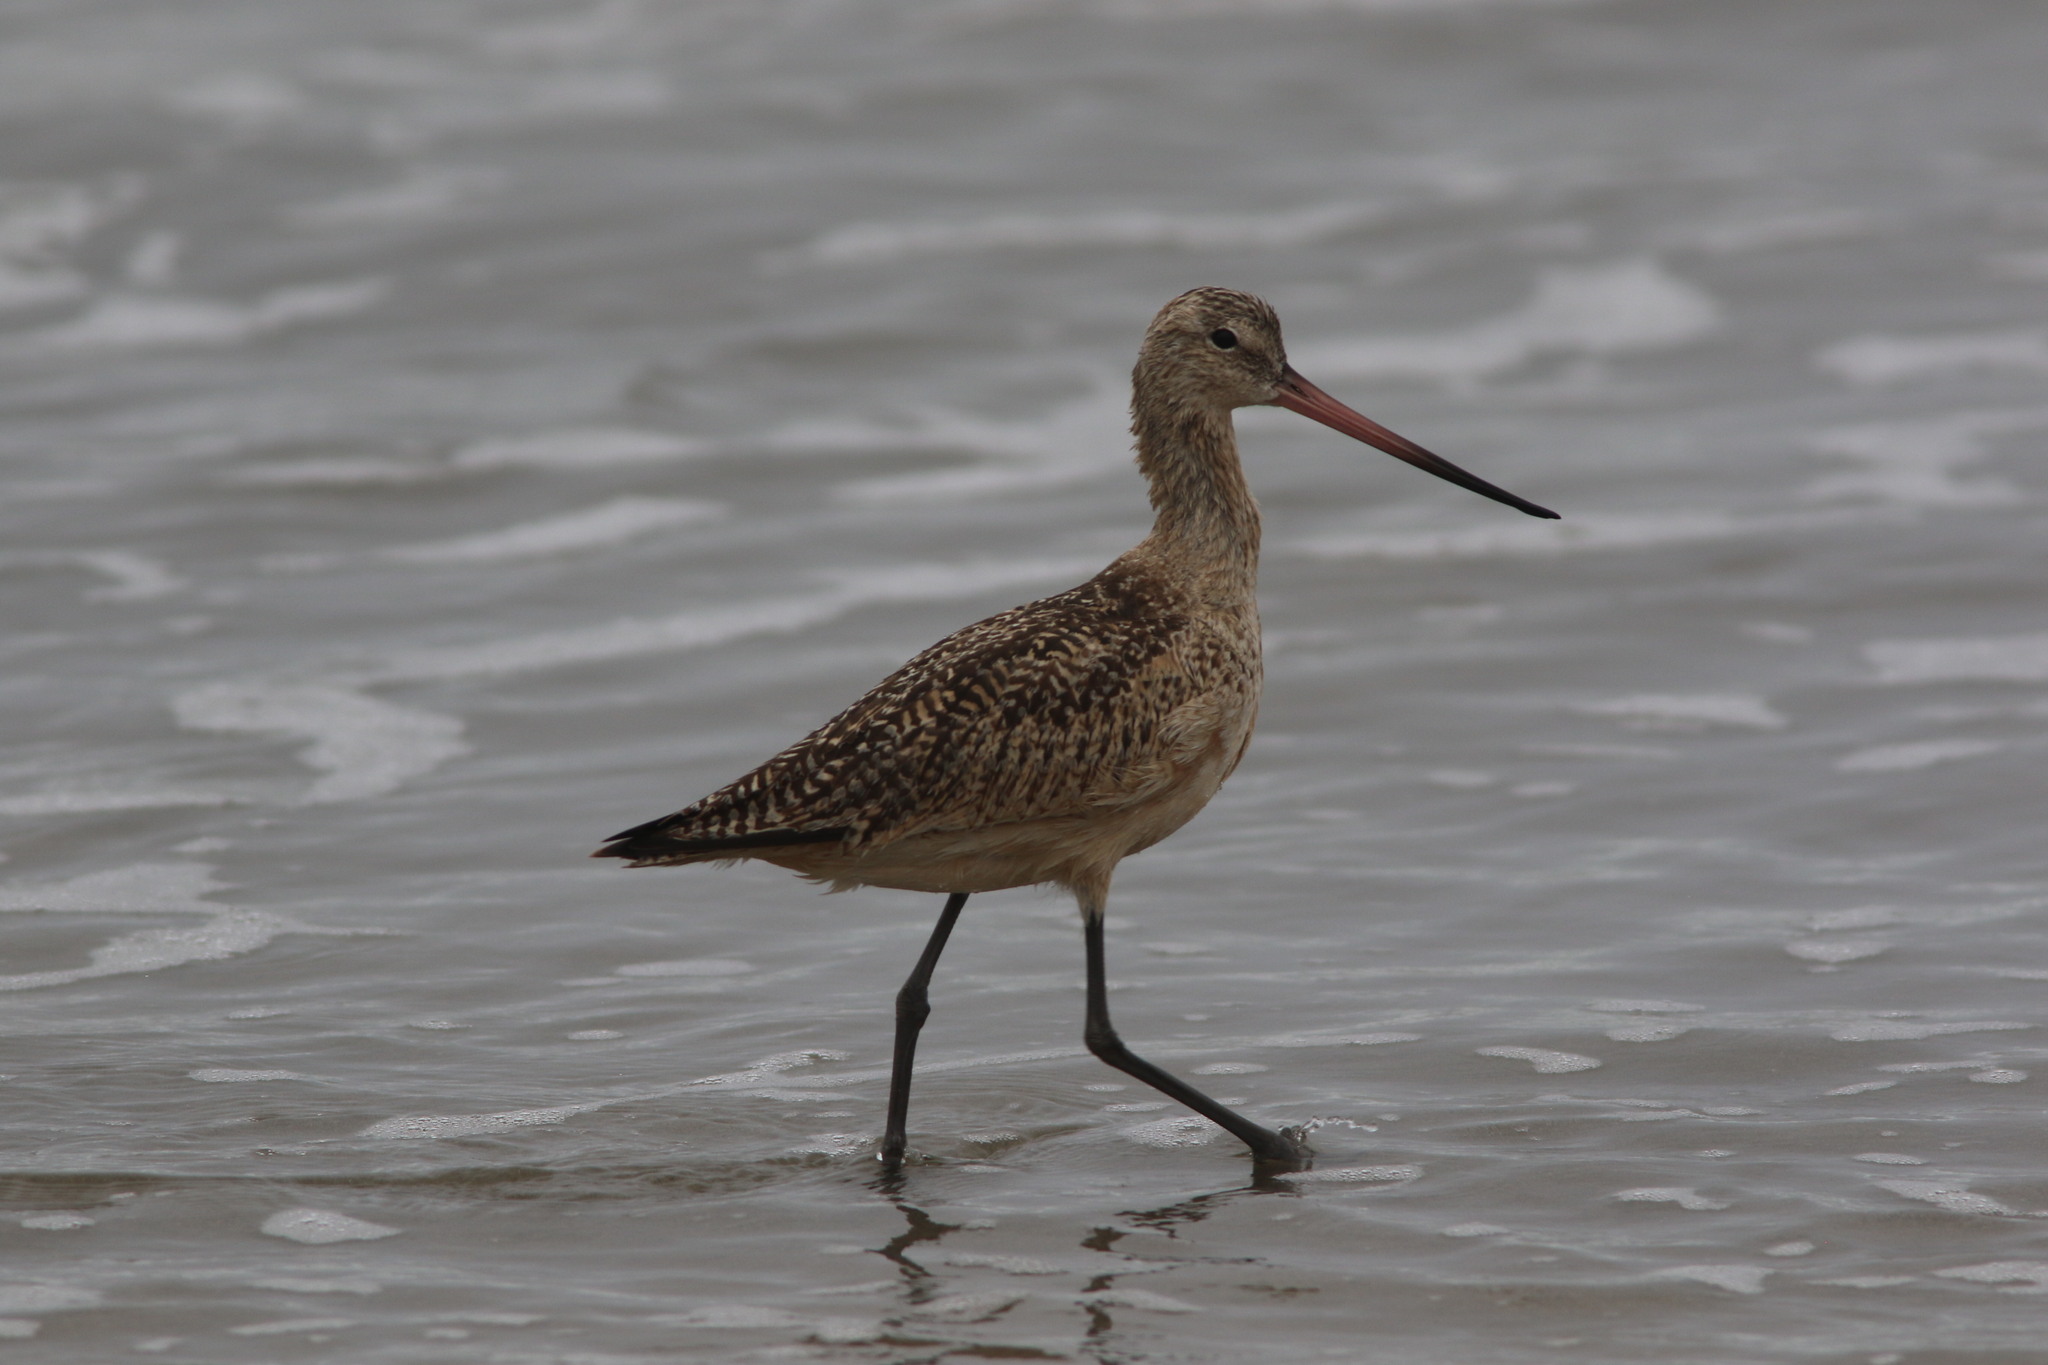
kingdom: Animalia
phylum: Chordata
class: Aves
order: Charadriiformes
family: Scolopacidae
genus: Limosa
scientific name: Limosa fedoa
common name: Marbled godwit
